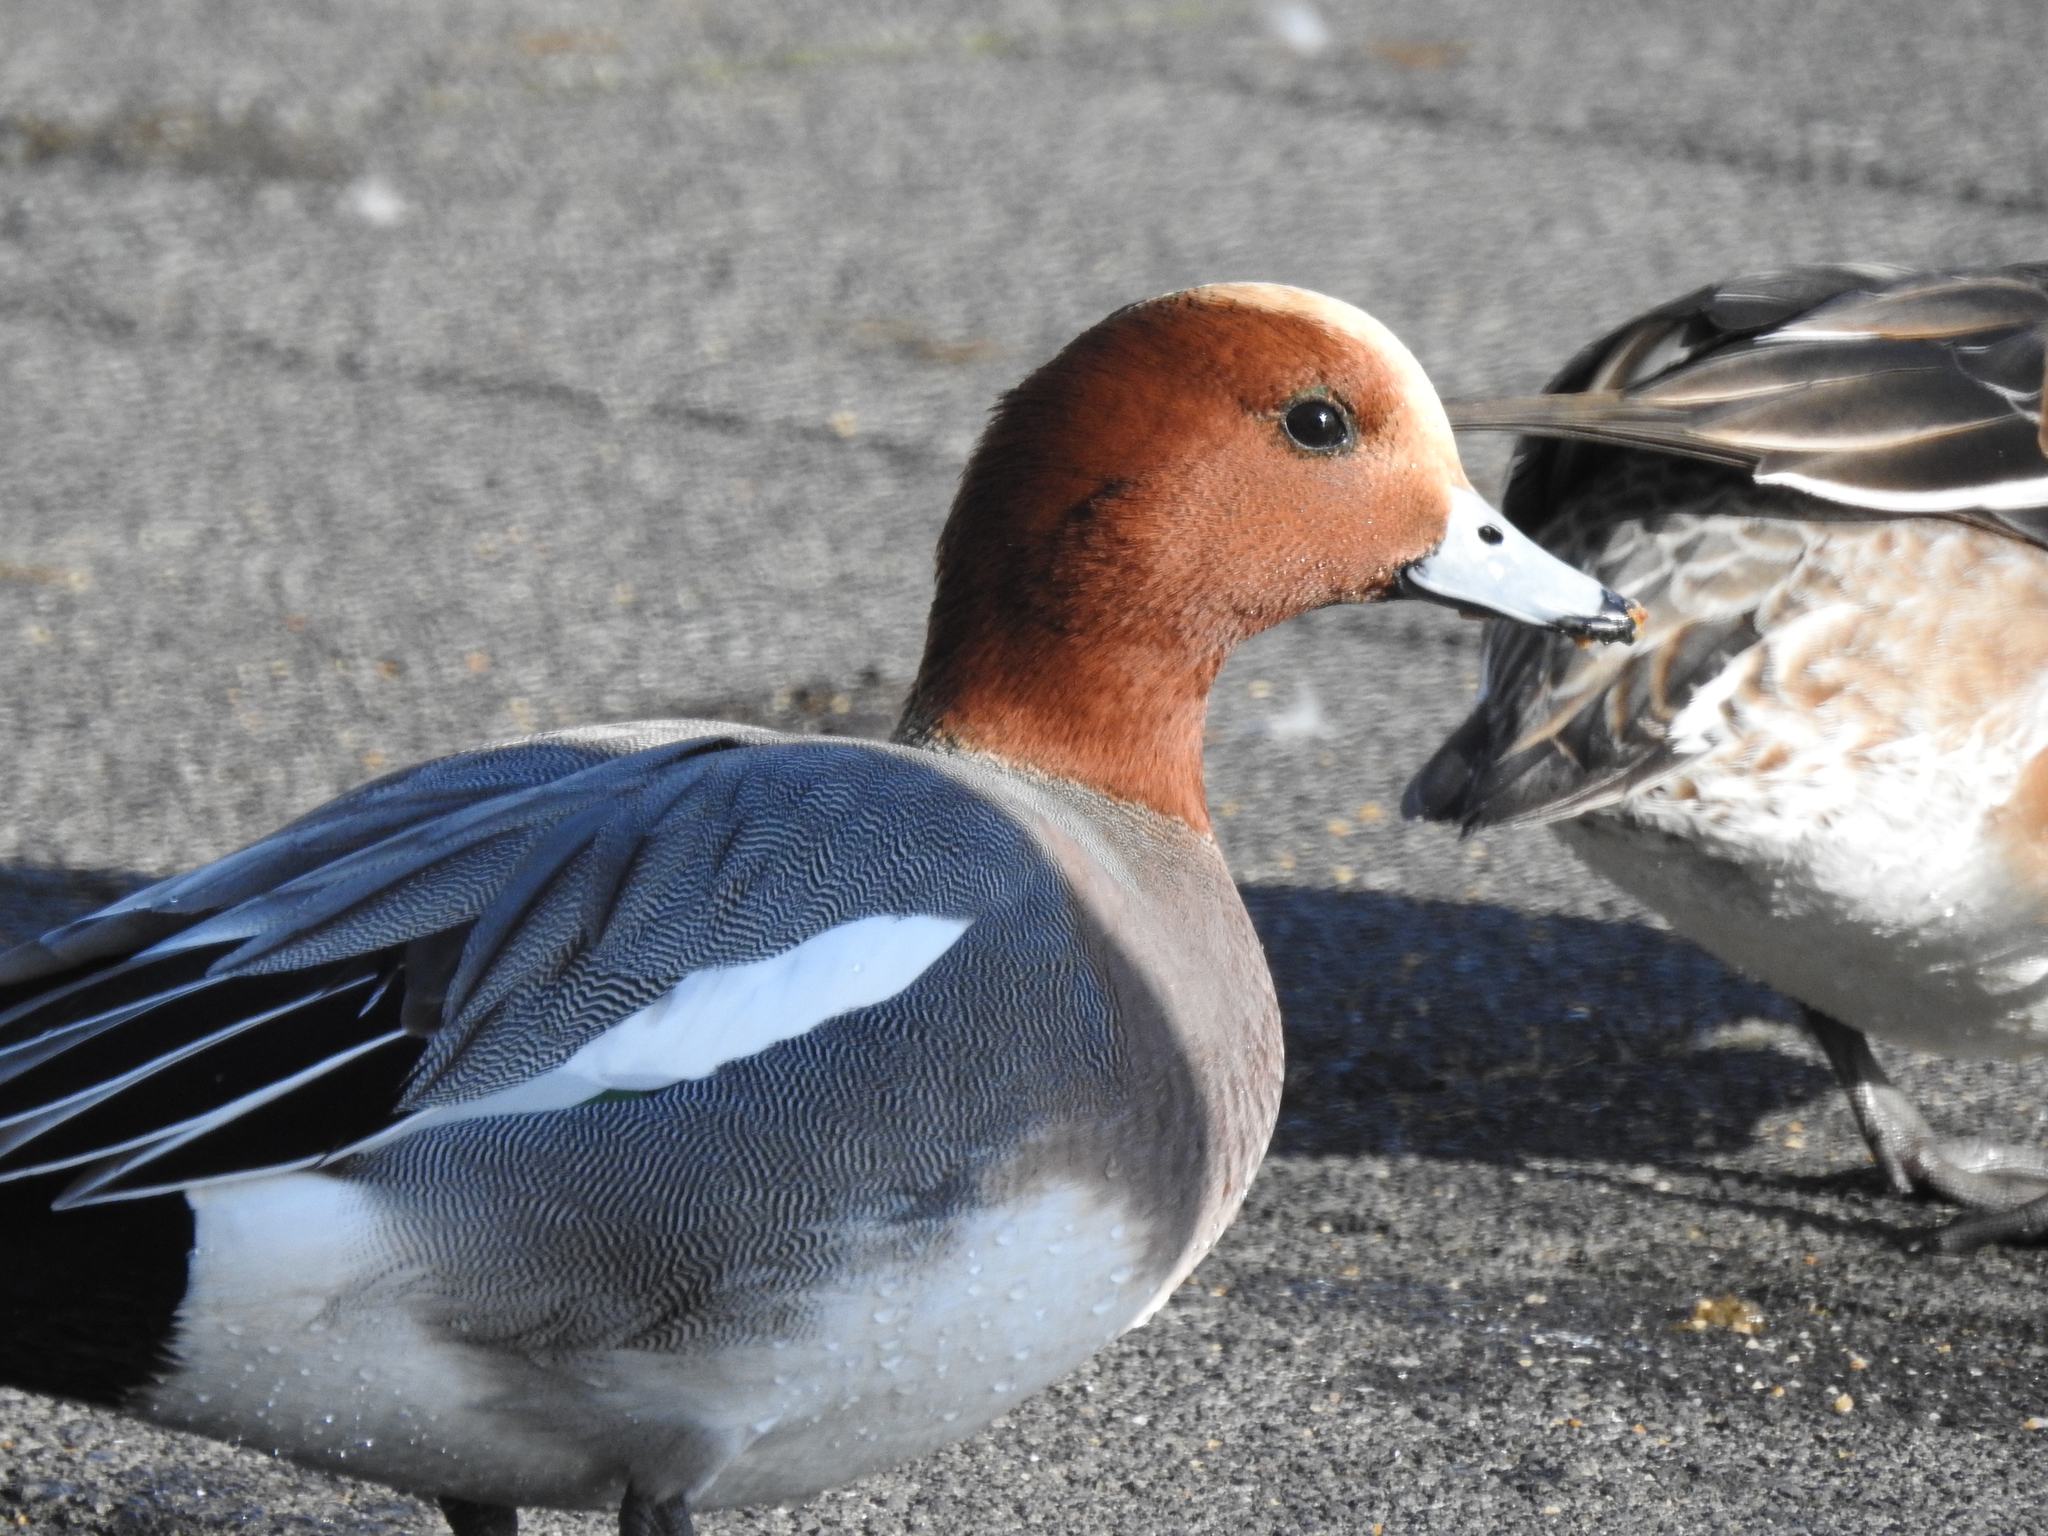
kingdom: Animalia
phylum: Chordata
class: Aves
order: Anseriformes
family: Anatidae
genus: Mareca
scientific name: Mareca penelope
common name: Eurasian wigeon
